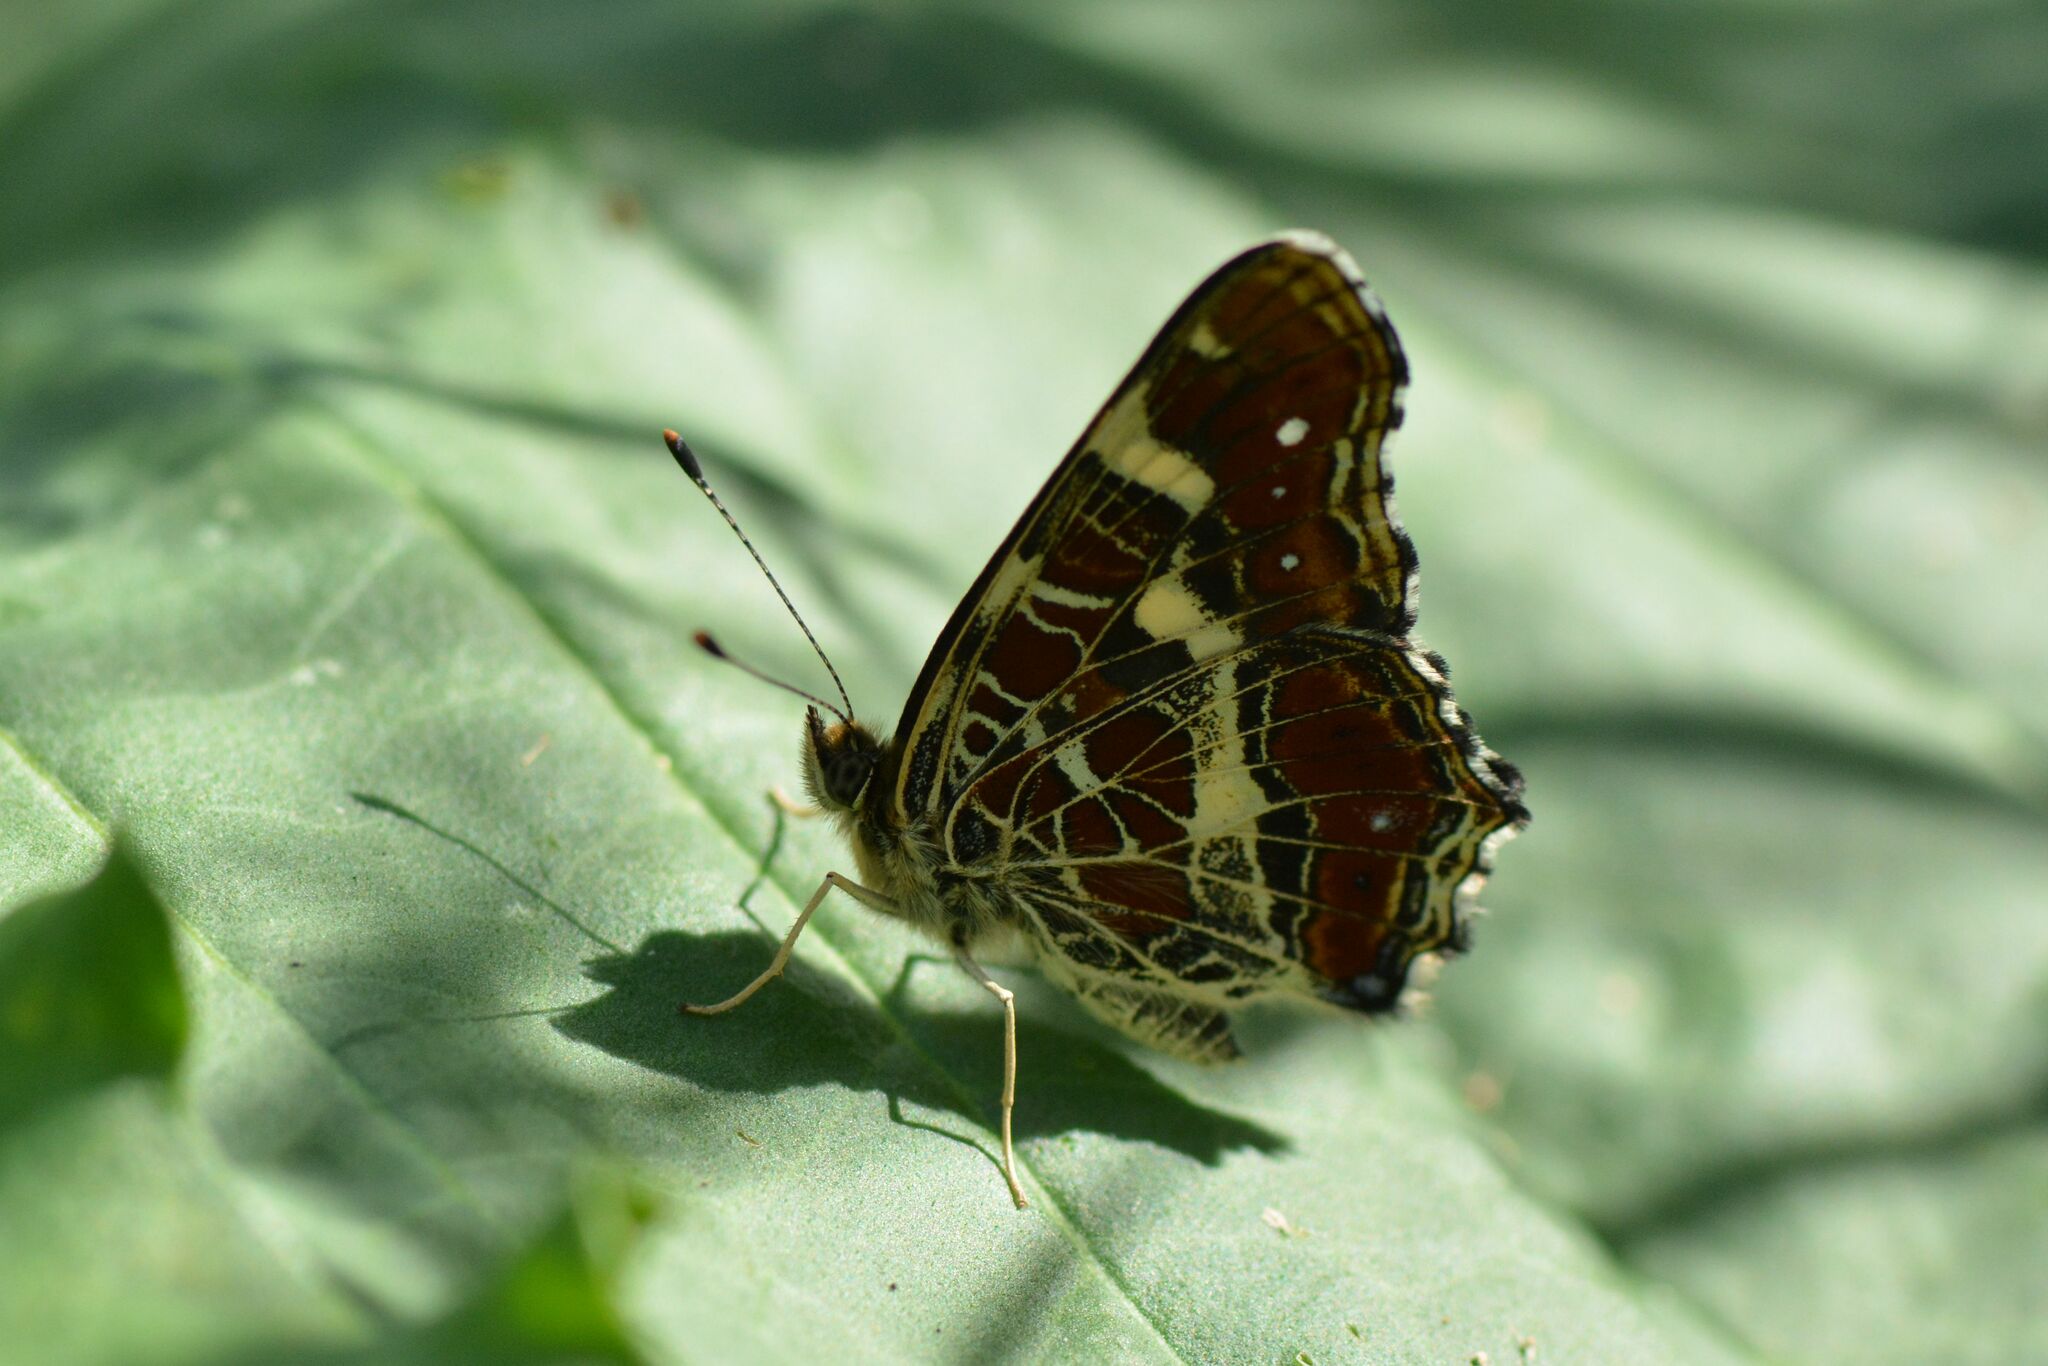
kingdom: Animalia
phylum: Arthropoda
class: Insecta
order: Lepidoptera
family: Nymphalidae
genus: Araschnia
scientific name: Araschnia levana
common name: Map butterfly
